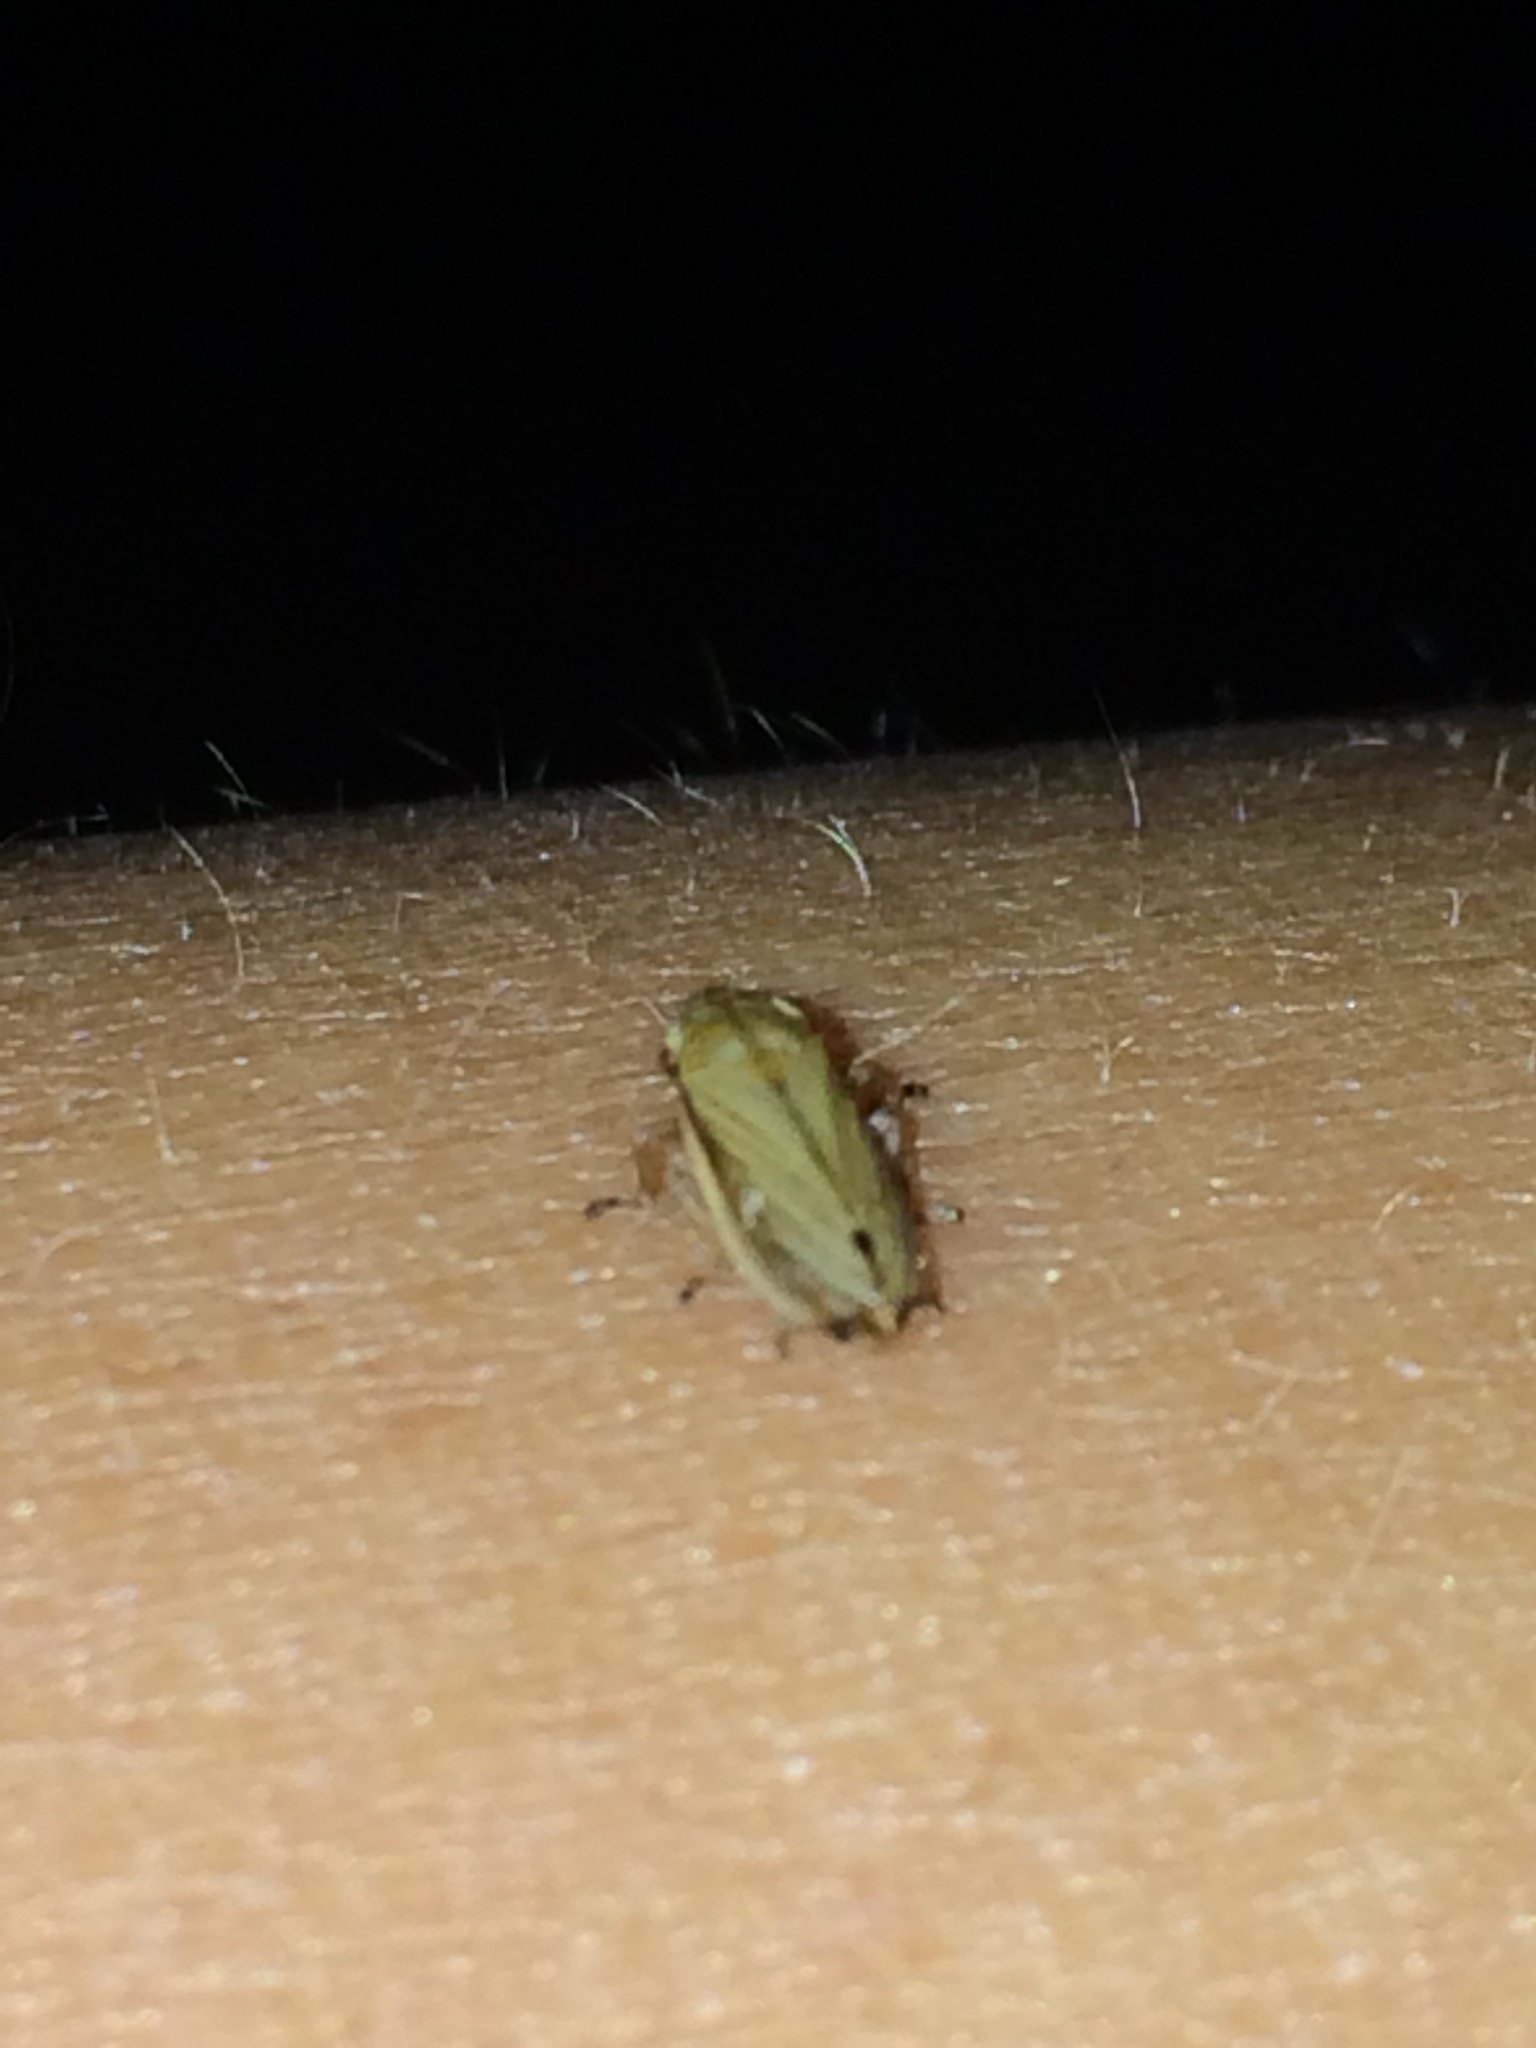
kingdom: Animalia
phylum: Arthropoda
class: Insecta
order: Hemiptera
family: Aphrophoridae
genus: Neophilaenus
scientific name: Neophilaenus lineatus
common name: Spittlebug
